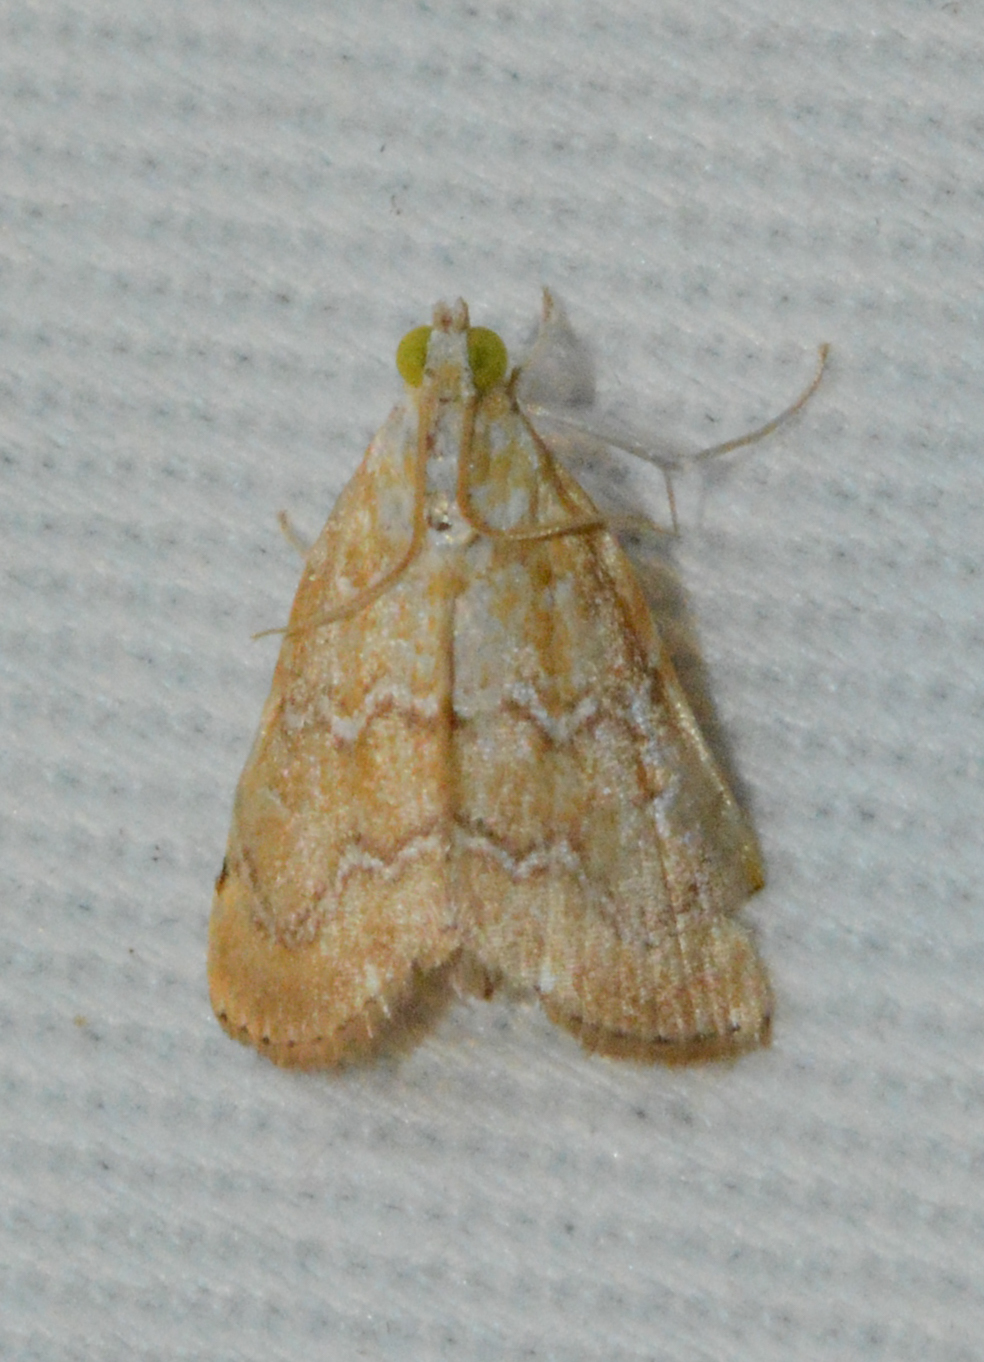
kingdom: Animalia
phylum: Arthropoda
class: Insecta
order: Lepidoptera
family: Crambidae
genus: Glaphyria
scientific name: Glaphyria sesquistrialis
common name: White-roped glaphyria
